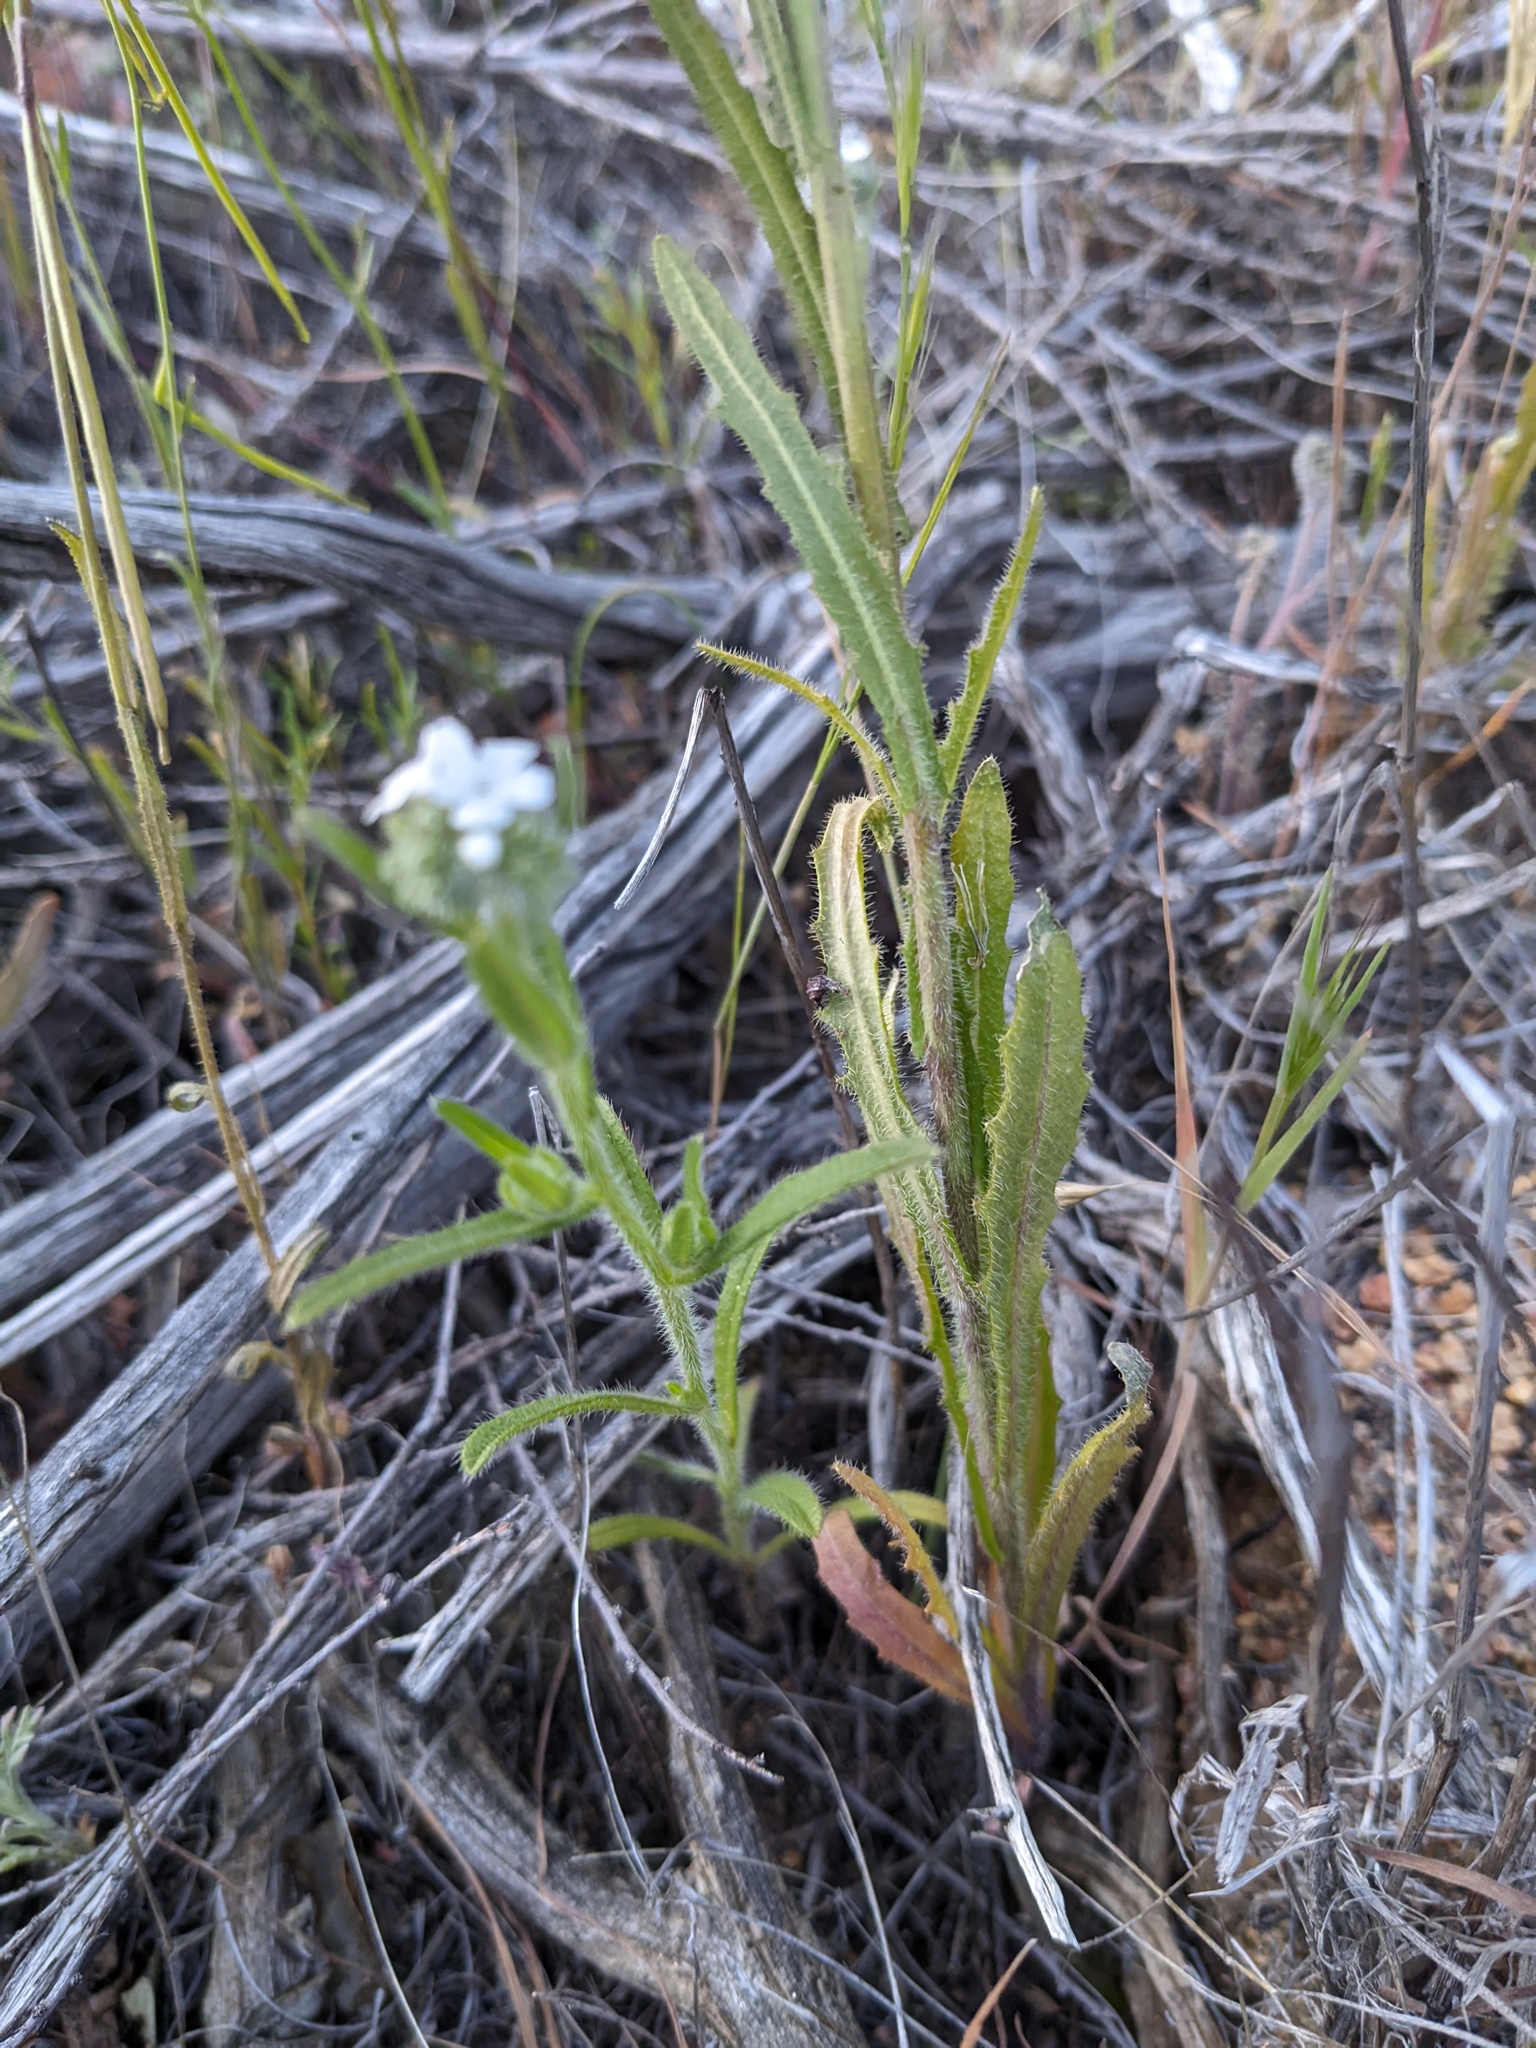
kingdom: Plantae
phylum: Tracheophyta
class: Magnoliopsida
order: Brassicales
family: Brassicaceae
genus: Streptanthus
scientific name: Streptanthus heterophyllus
